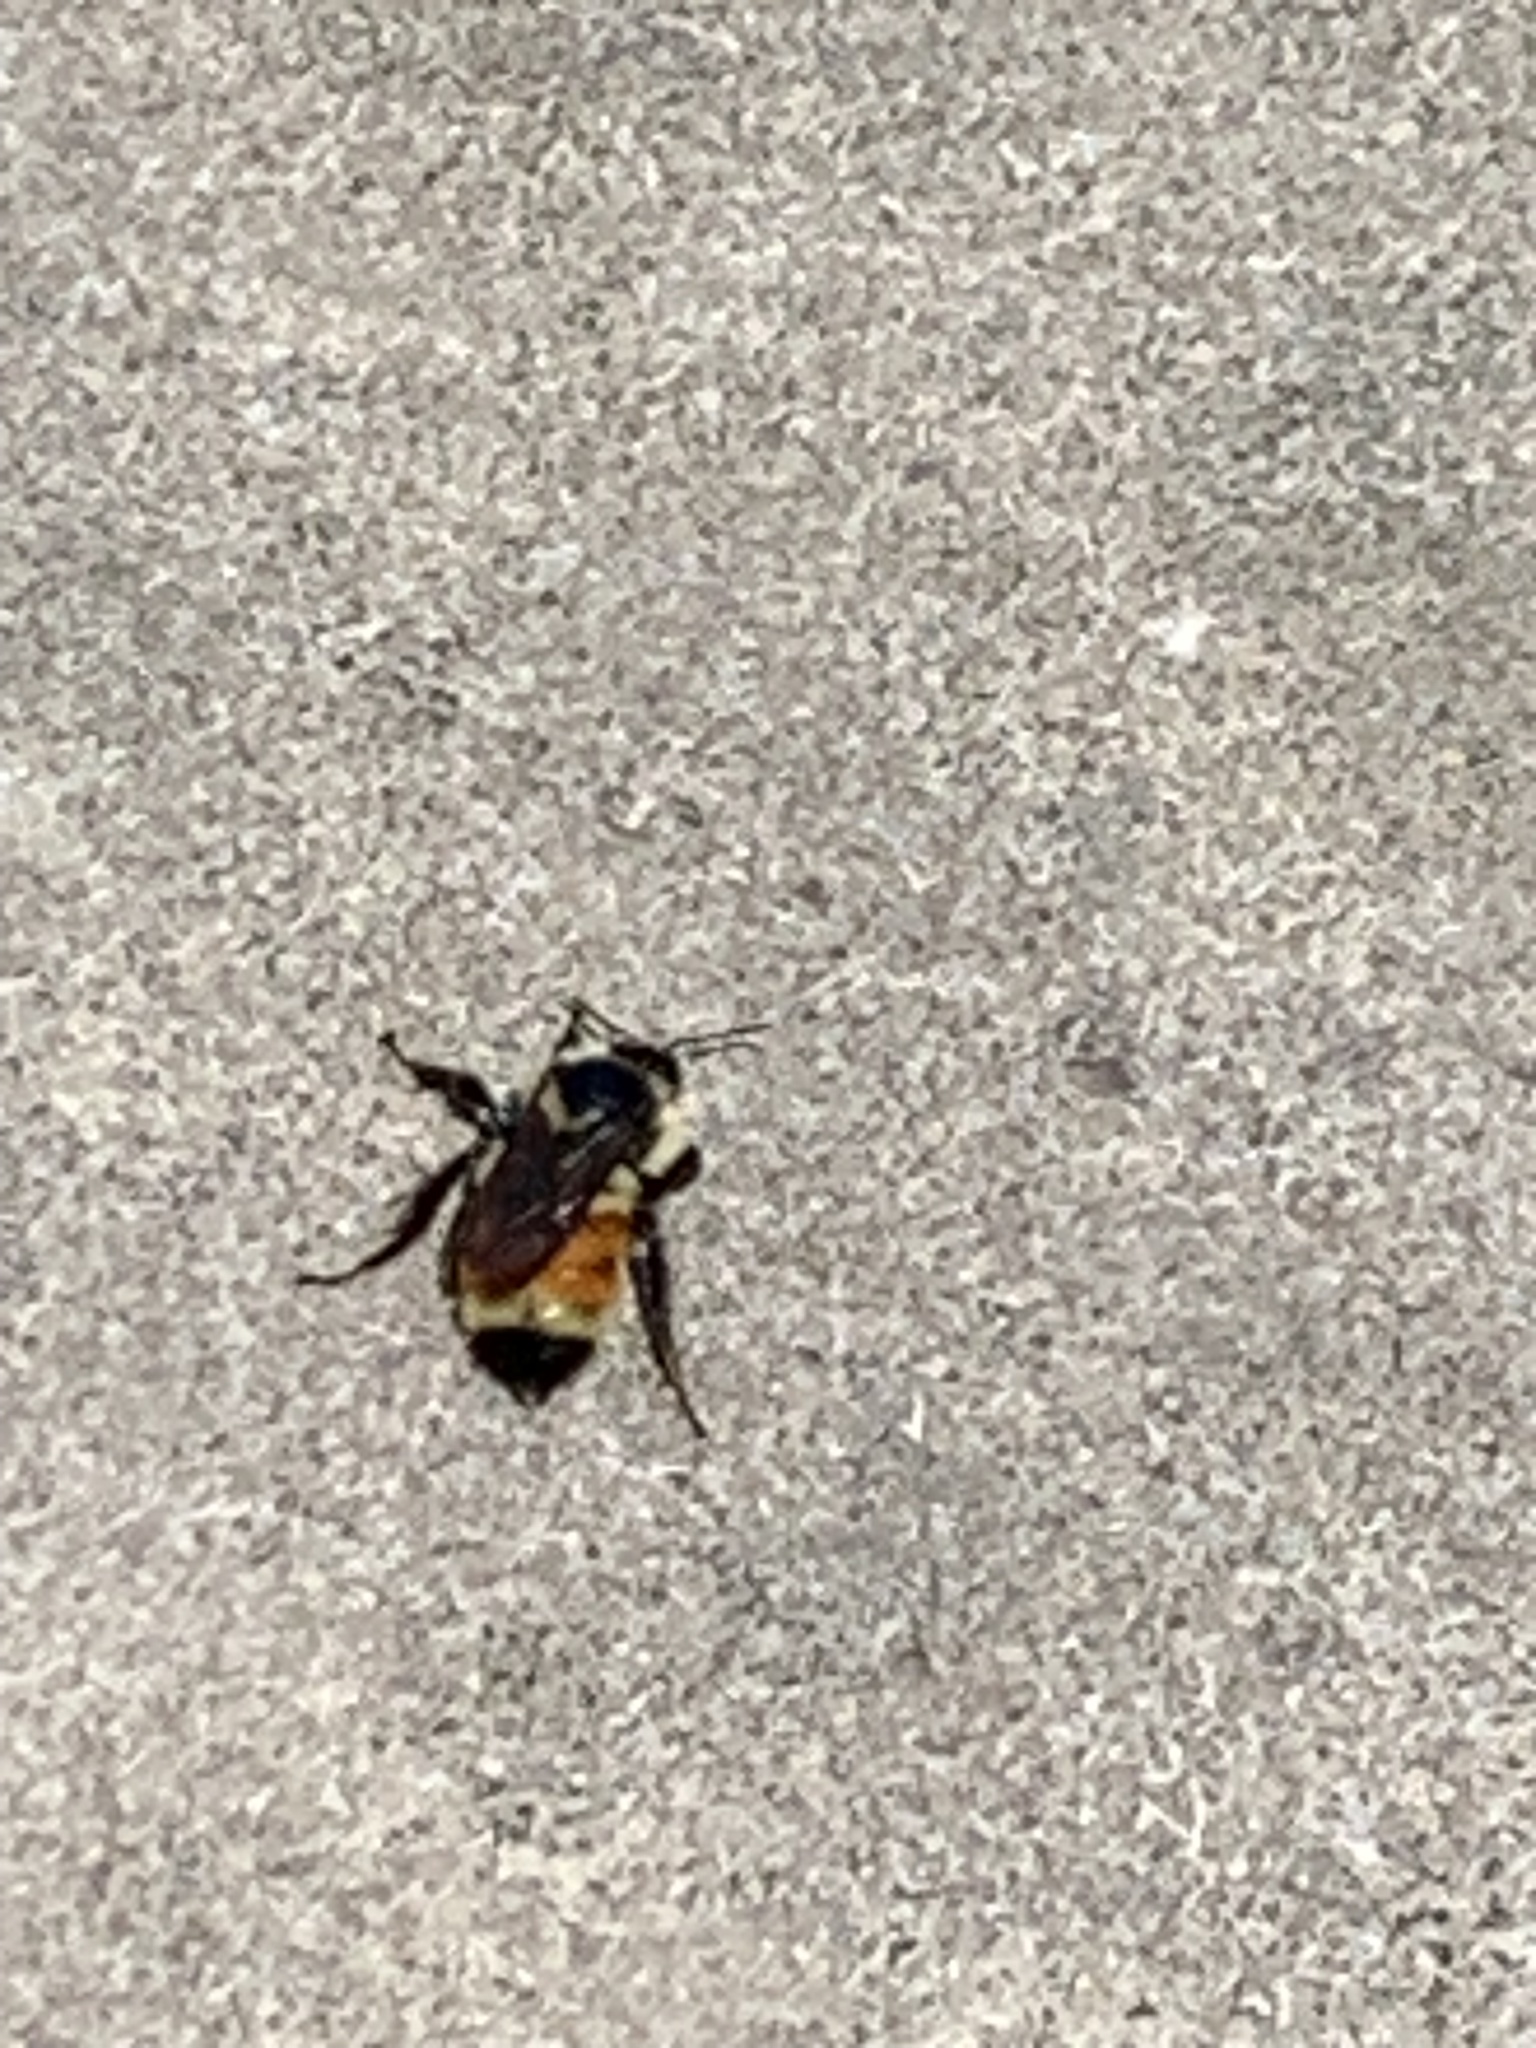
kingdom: Animalia
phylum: Arthropoda
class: Insecta
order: Hymenoptera
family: Apidae
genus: Bombus
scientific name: Bombus ternarius
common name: Tri-colored bumble bee
